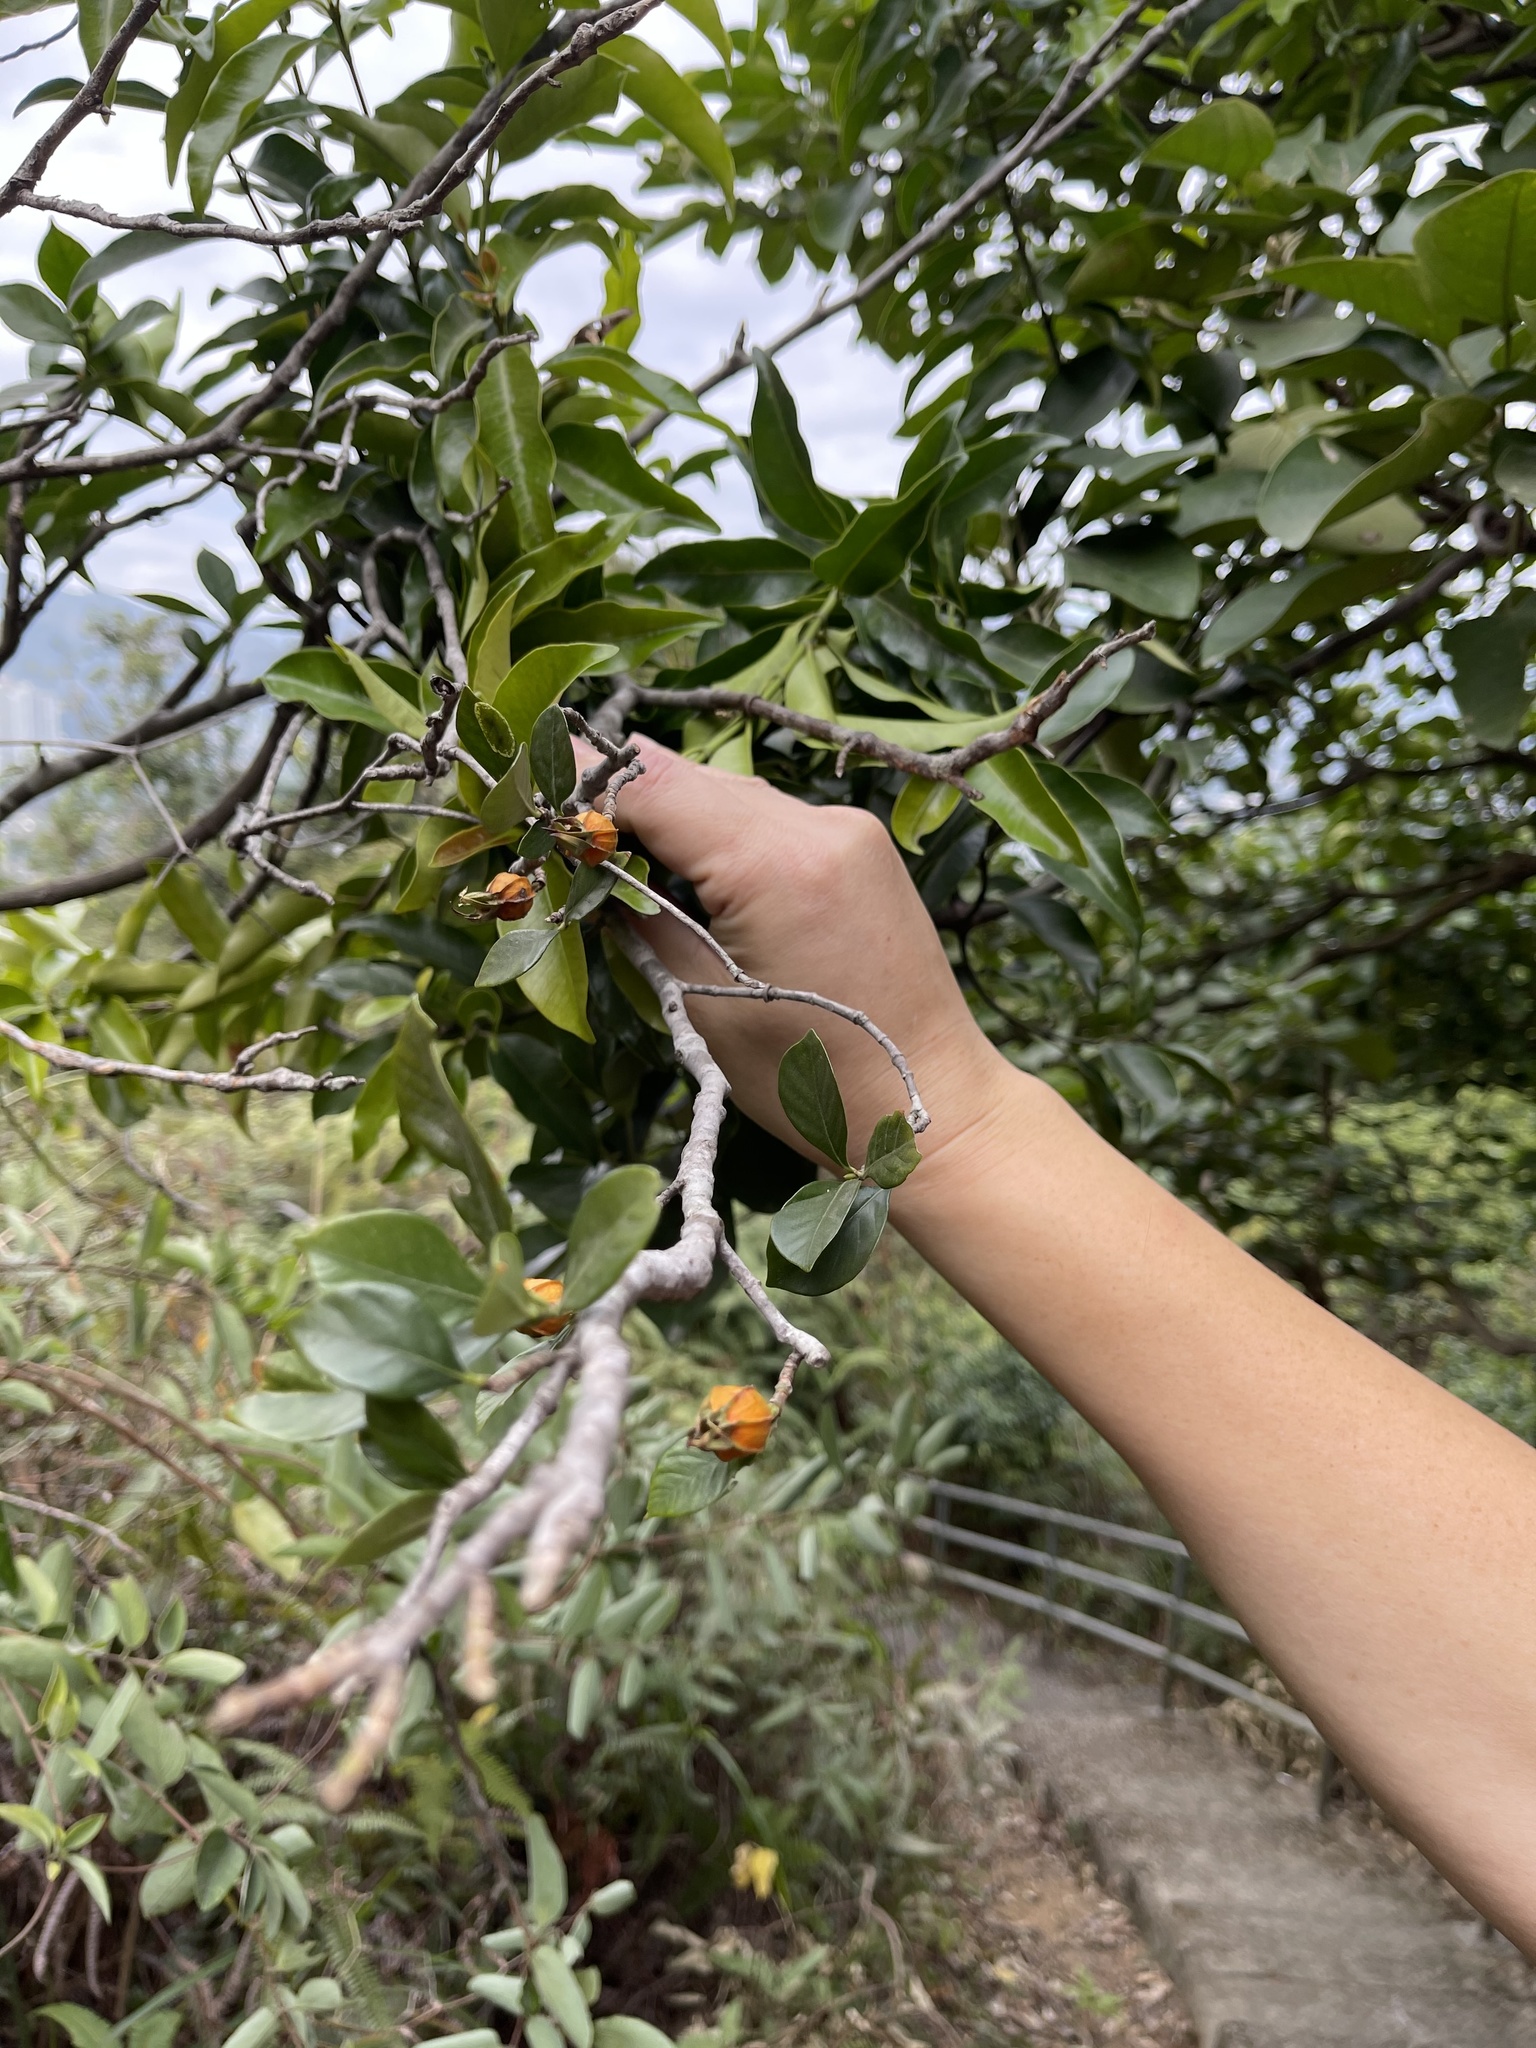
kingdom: Plantae
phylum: Tracheophyta
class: Magnoliopsida
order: Gentianales
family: Rubiaceae
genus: Gardenia
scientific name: Gardenia jasminoides
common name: Cape-jasmine
